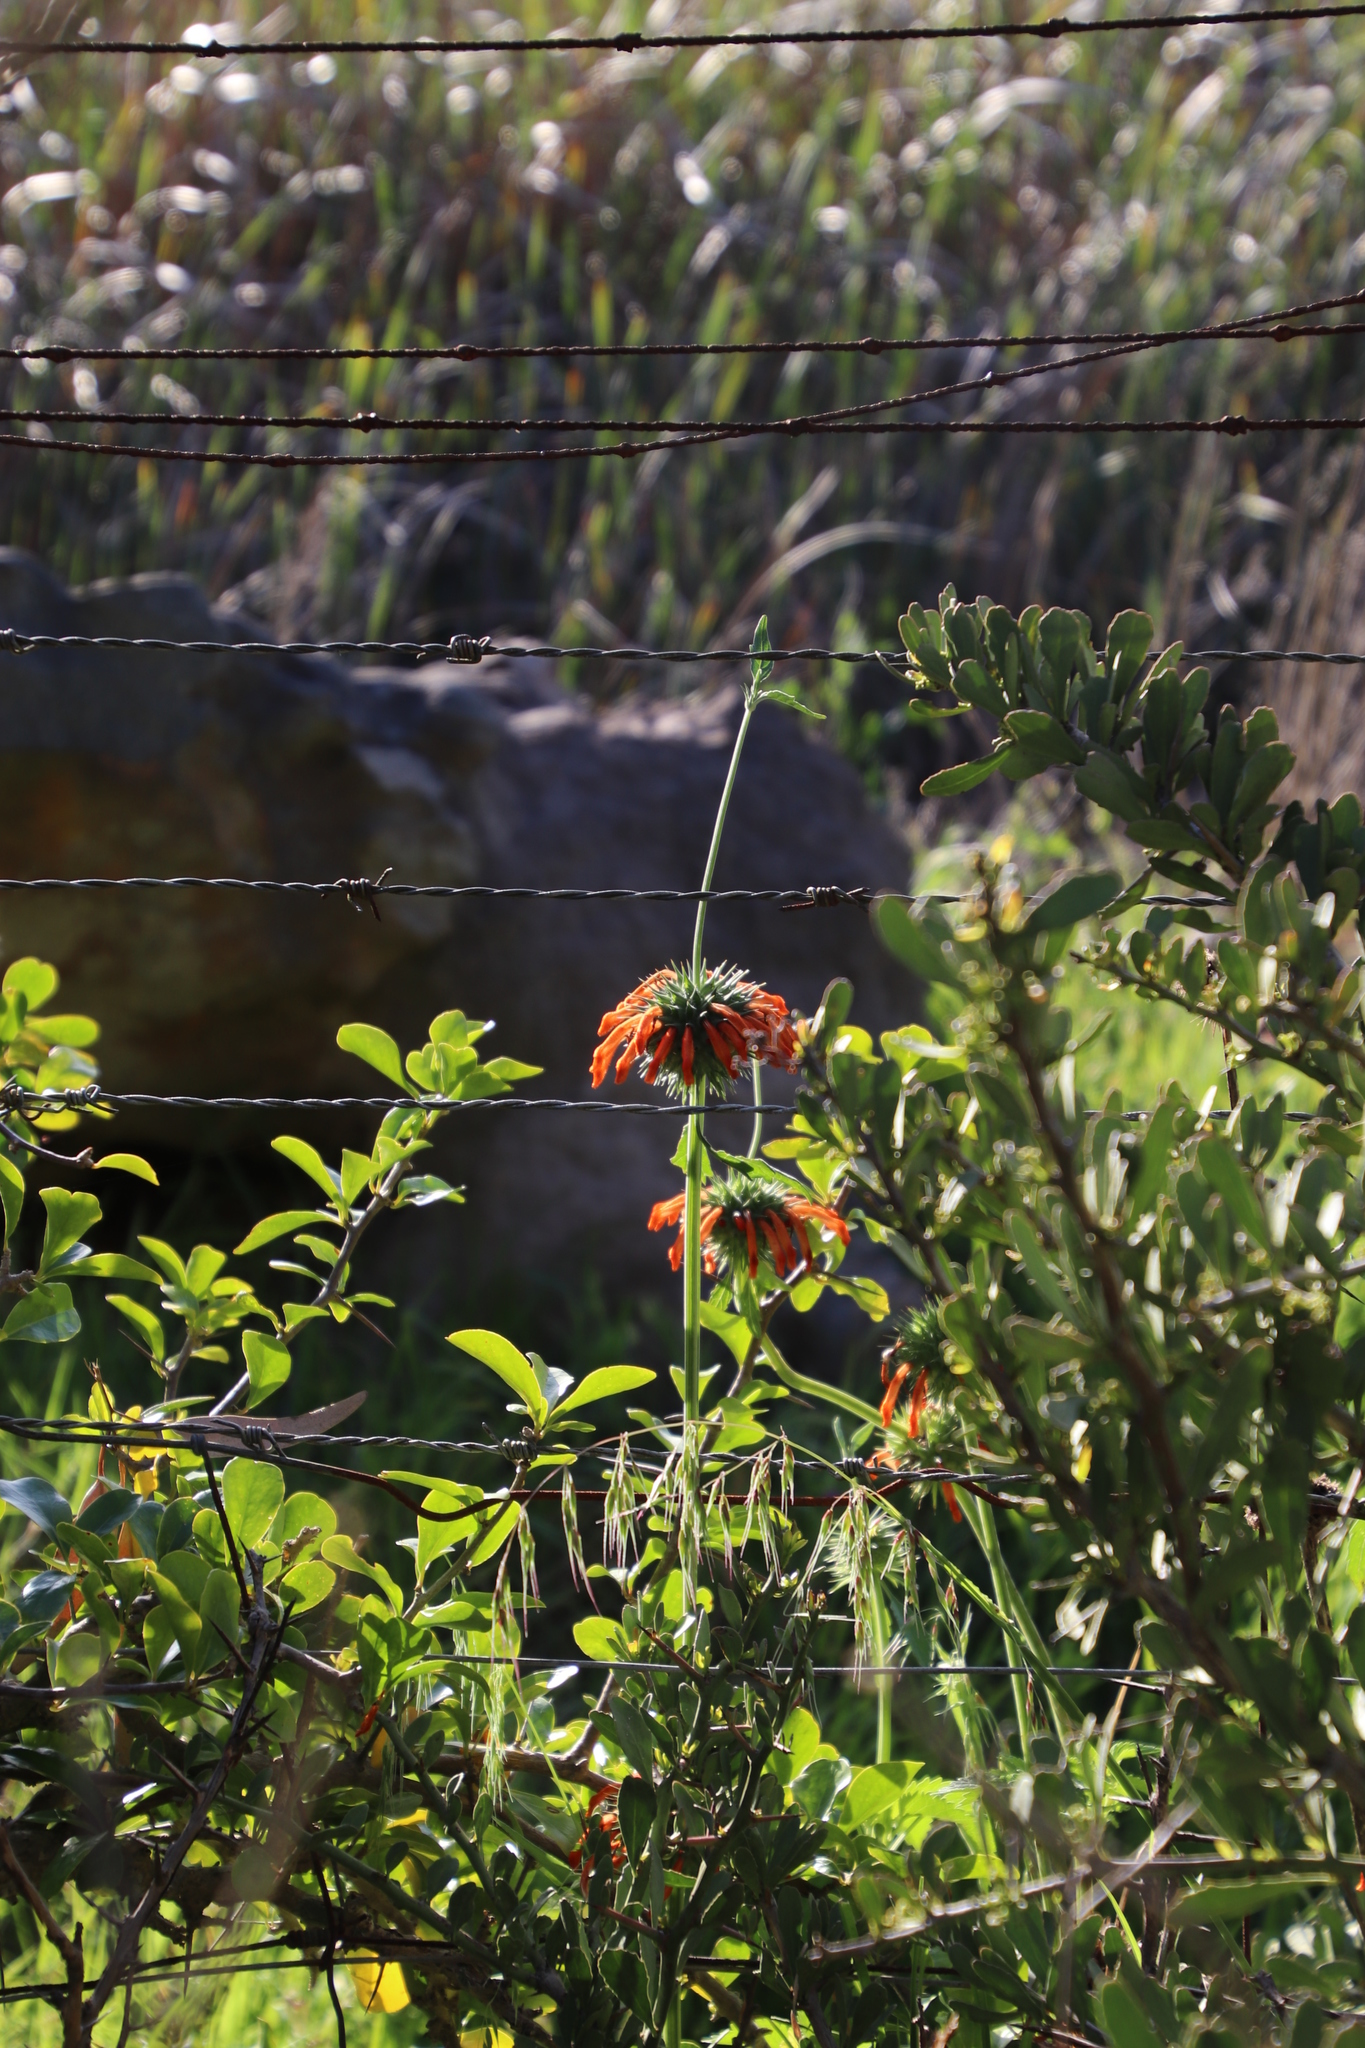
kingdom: Plantae
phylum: Tracheophyta
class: Magnoliopsida
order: Lamiales
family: Lamiaceae
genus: Leonotis
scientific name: Leonotis nepetifolia
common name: Christmas candlestick
